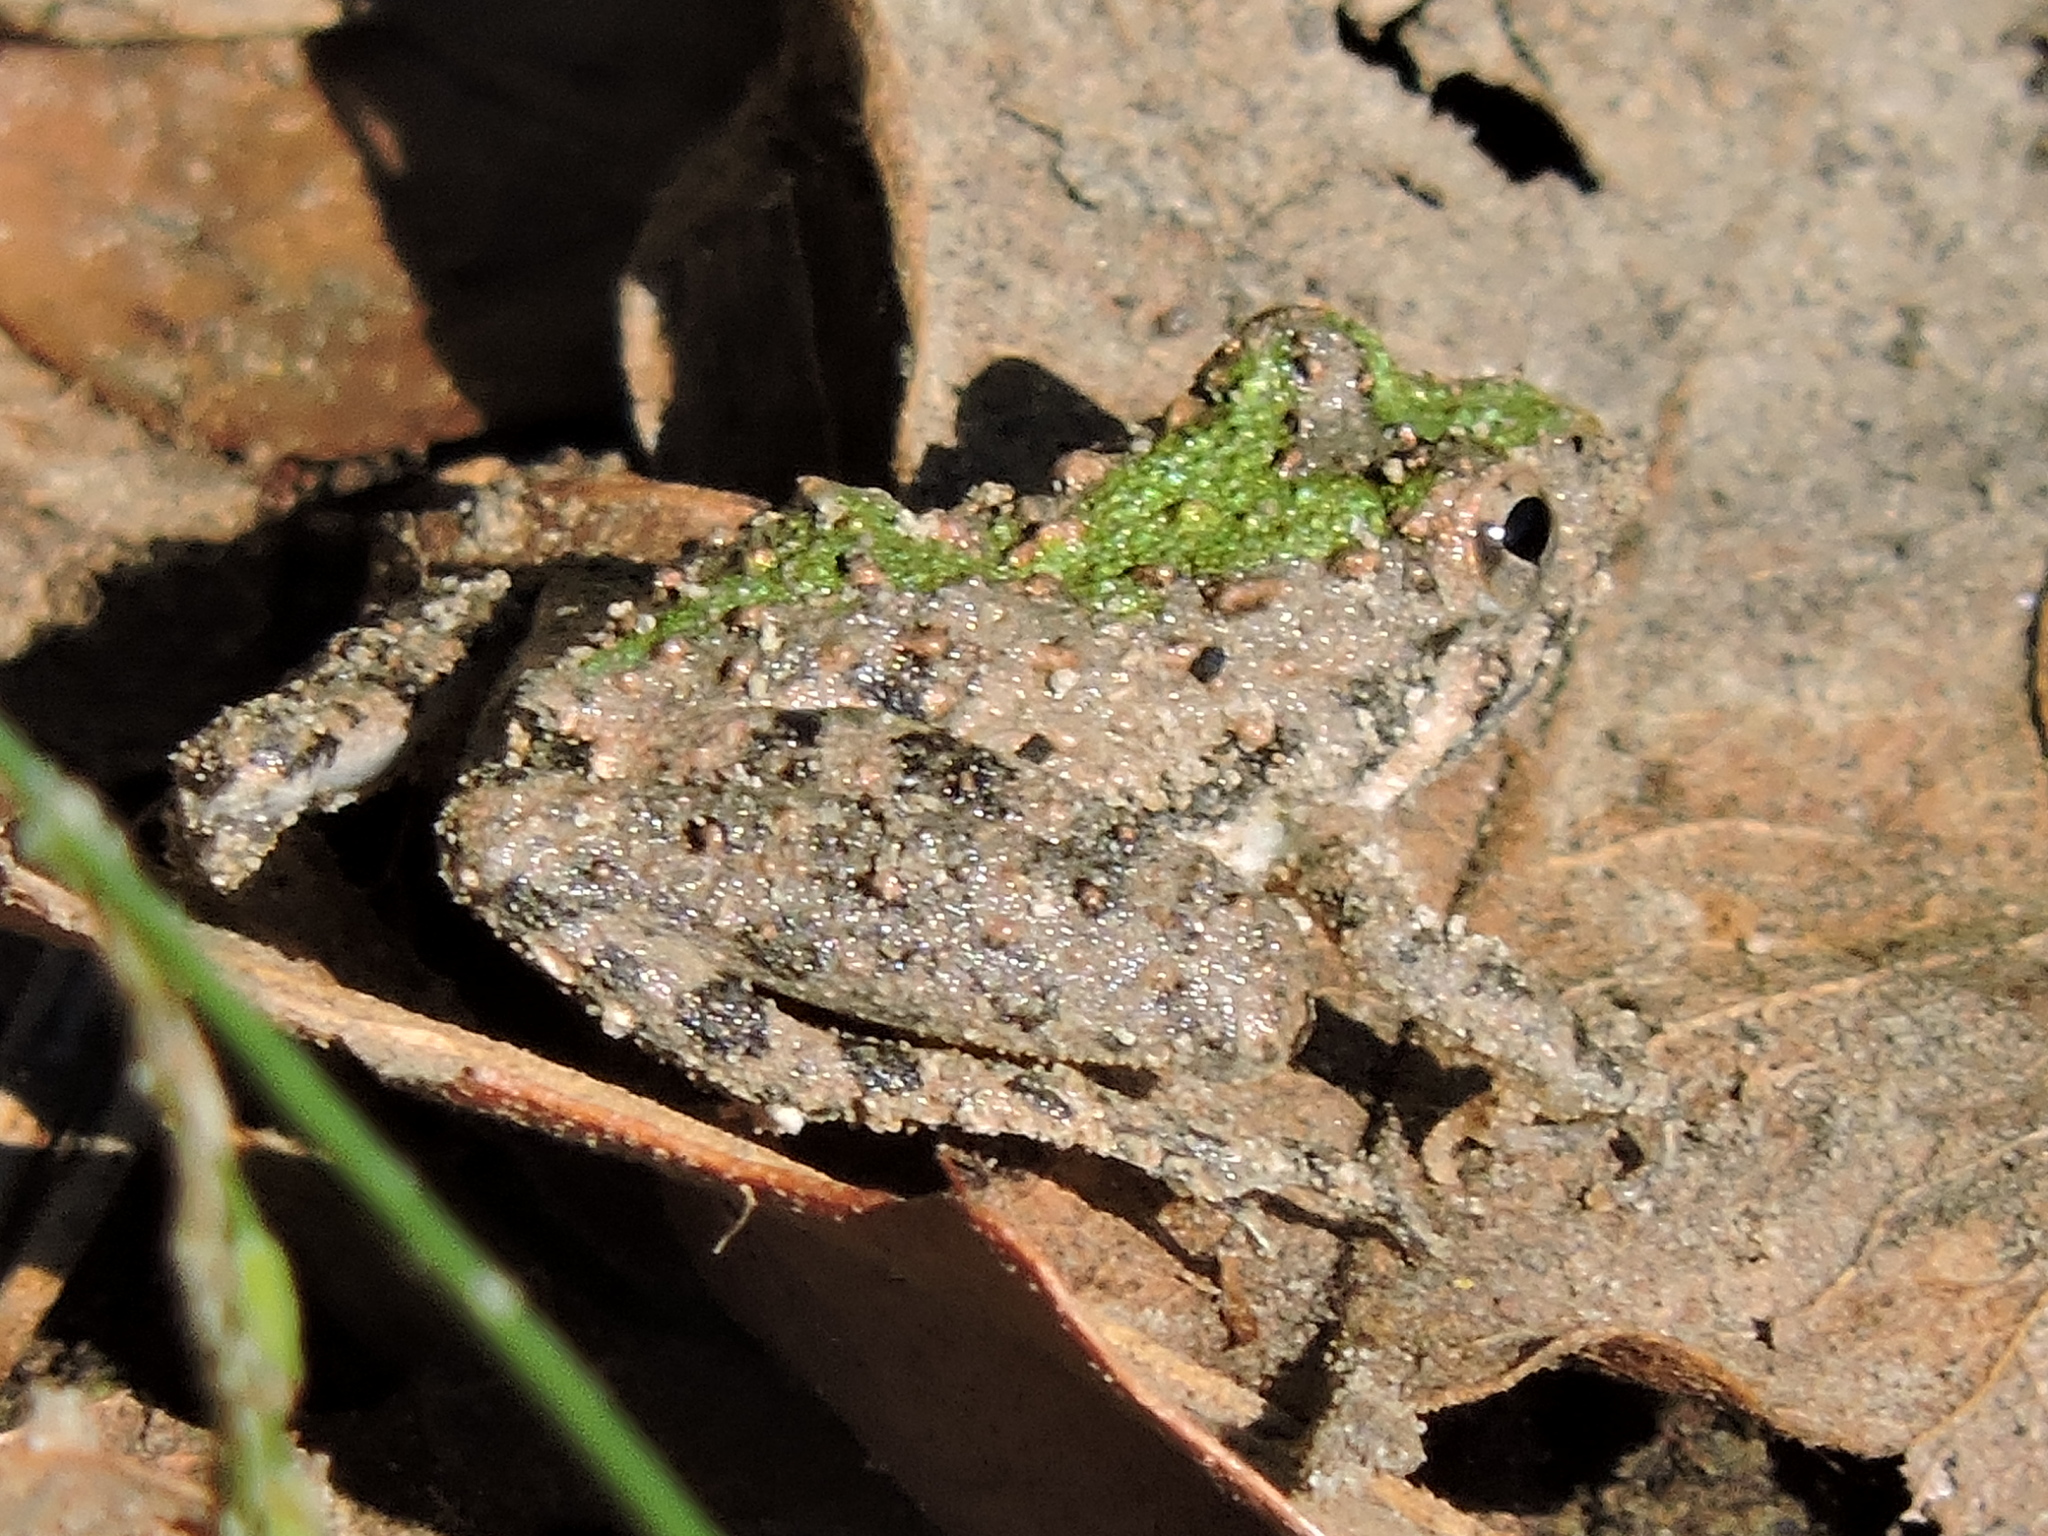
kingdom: Animalia
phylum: Chordata
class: Amphibia
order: Anura
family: Hylidae
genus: Acris
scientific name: Acris blanchardi
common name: Blanchard's cricket frog
